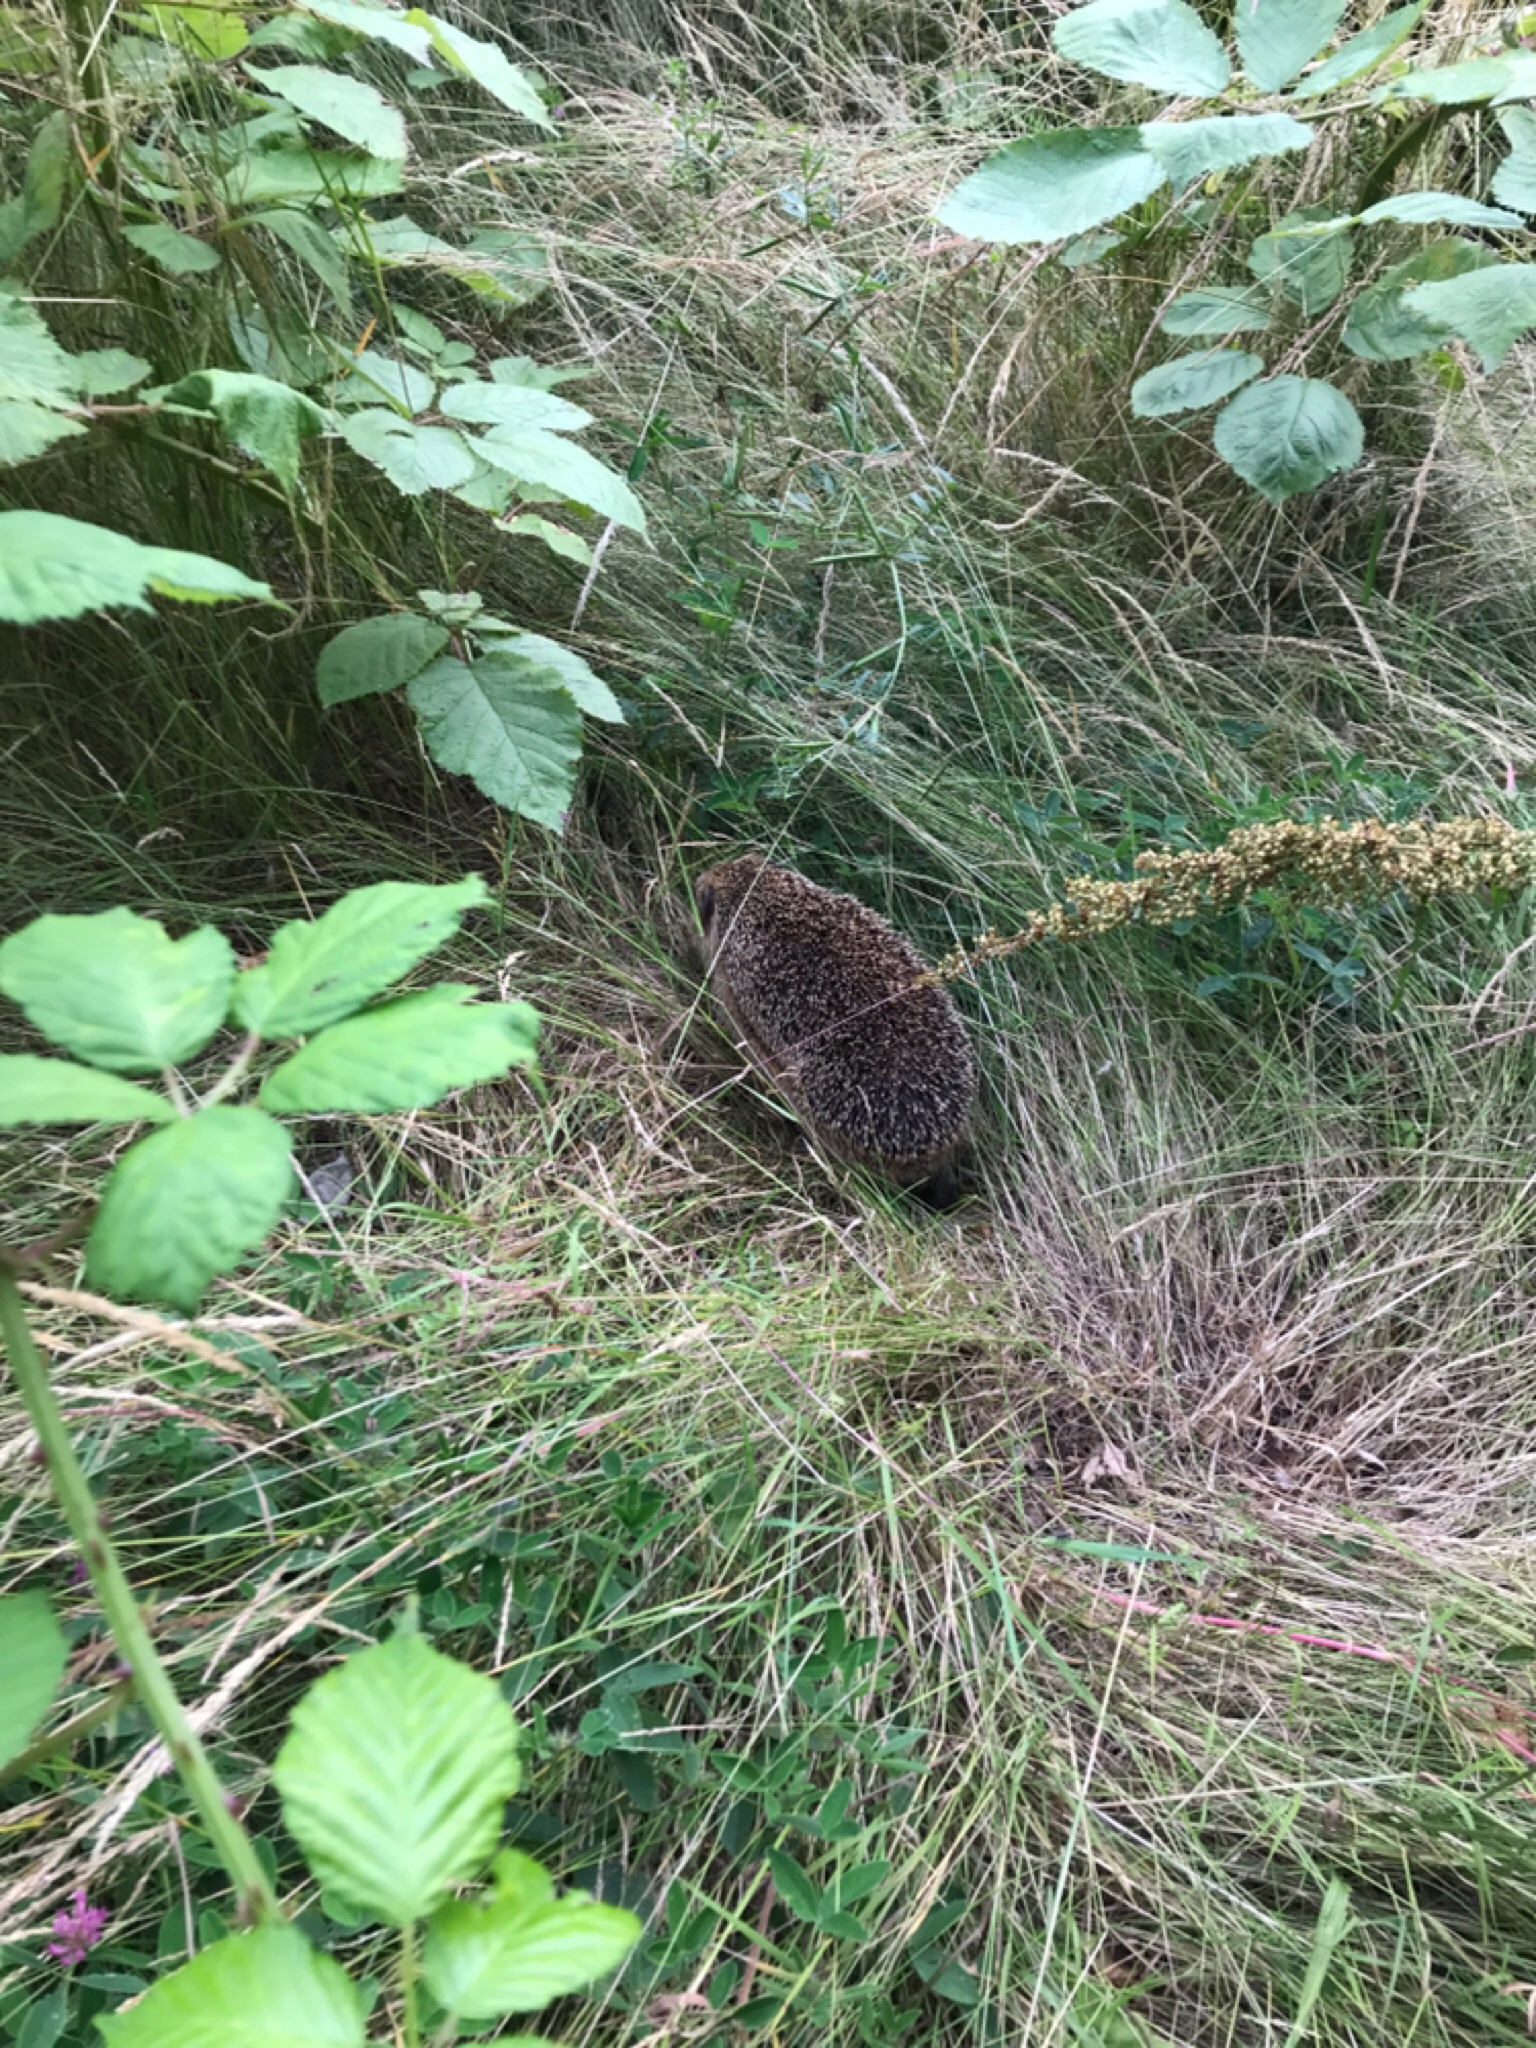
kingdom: Animalia
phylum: Chordata
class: Mammalia
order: Erinaceomorpha
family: Erinaceidae
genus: Erinaceus
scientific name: Erinaceus europaeus
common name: West european hedgehog
